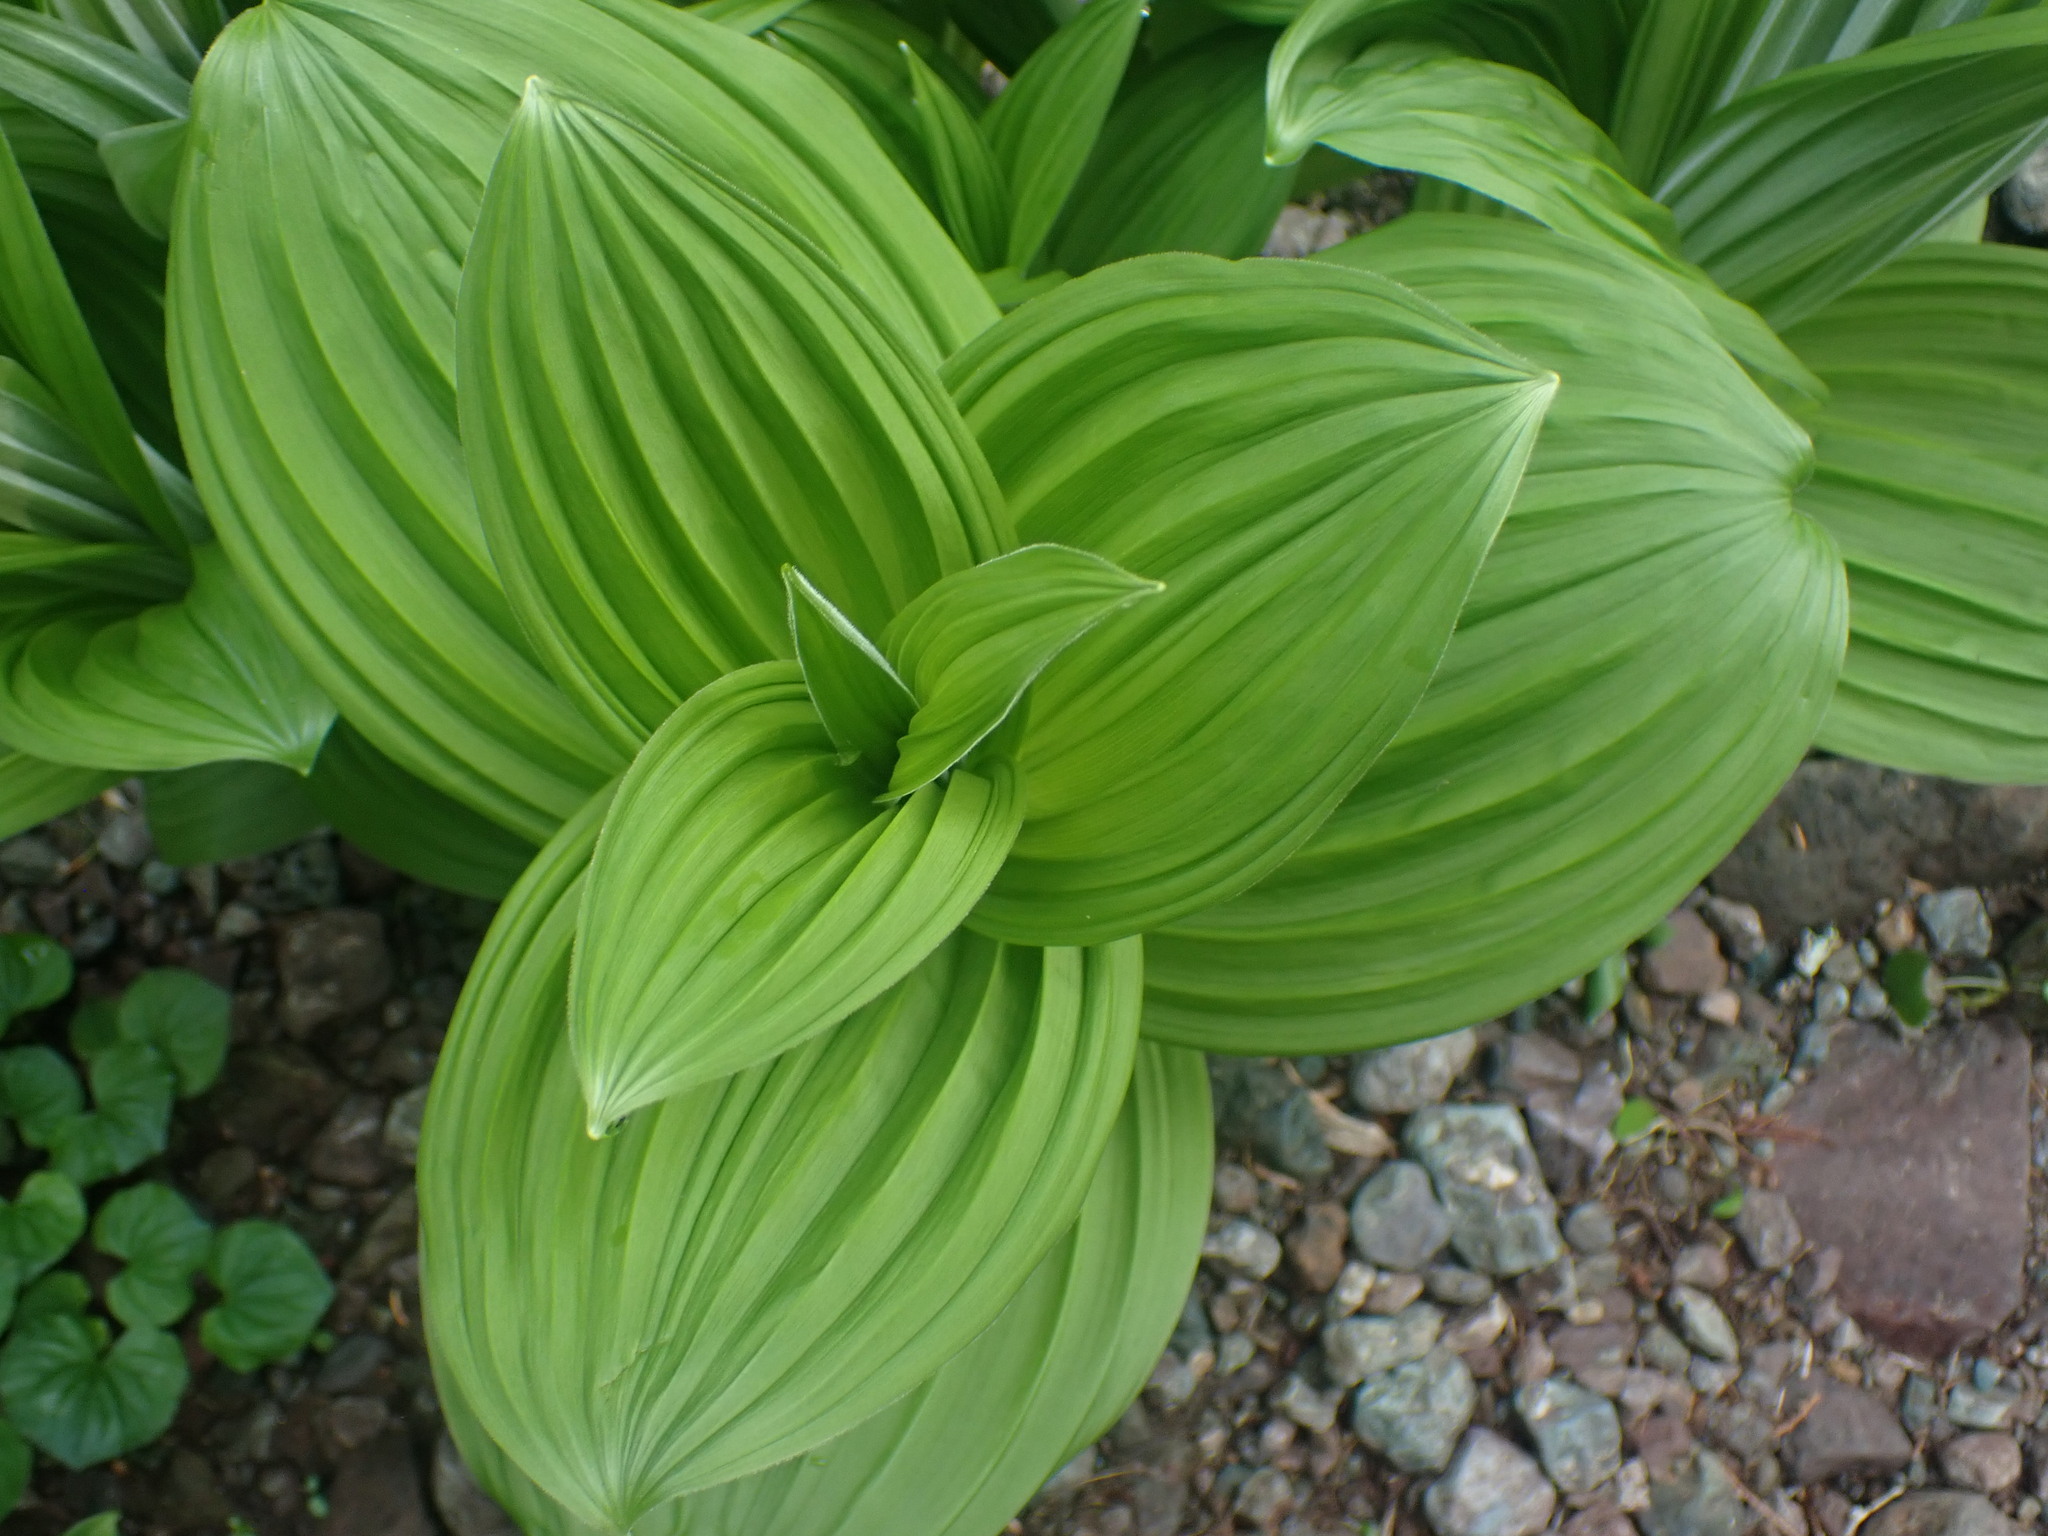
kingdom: Plantae
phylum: Tracheophyta
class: Liliopsida
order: Liliales
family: Melanthiaceae
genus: Veratrum
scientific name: Veratrum viride
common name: American false hellebore
